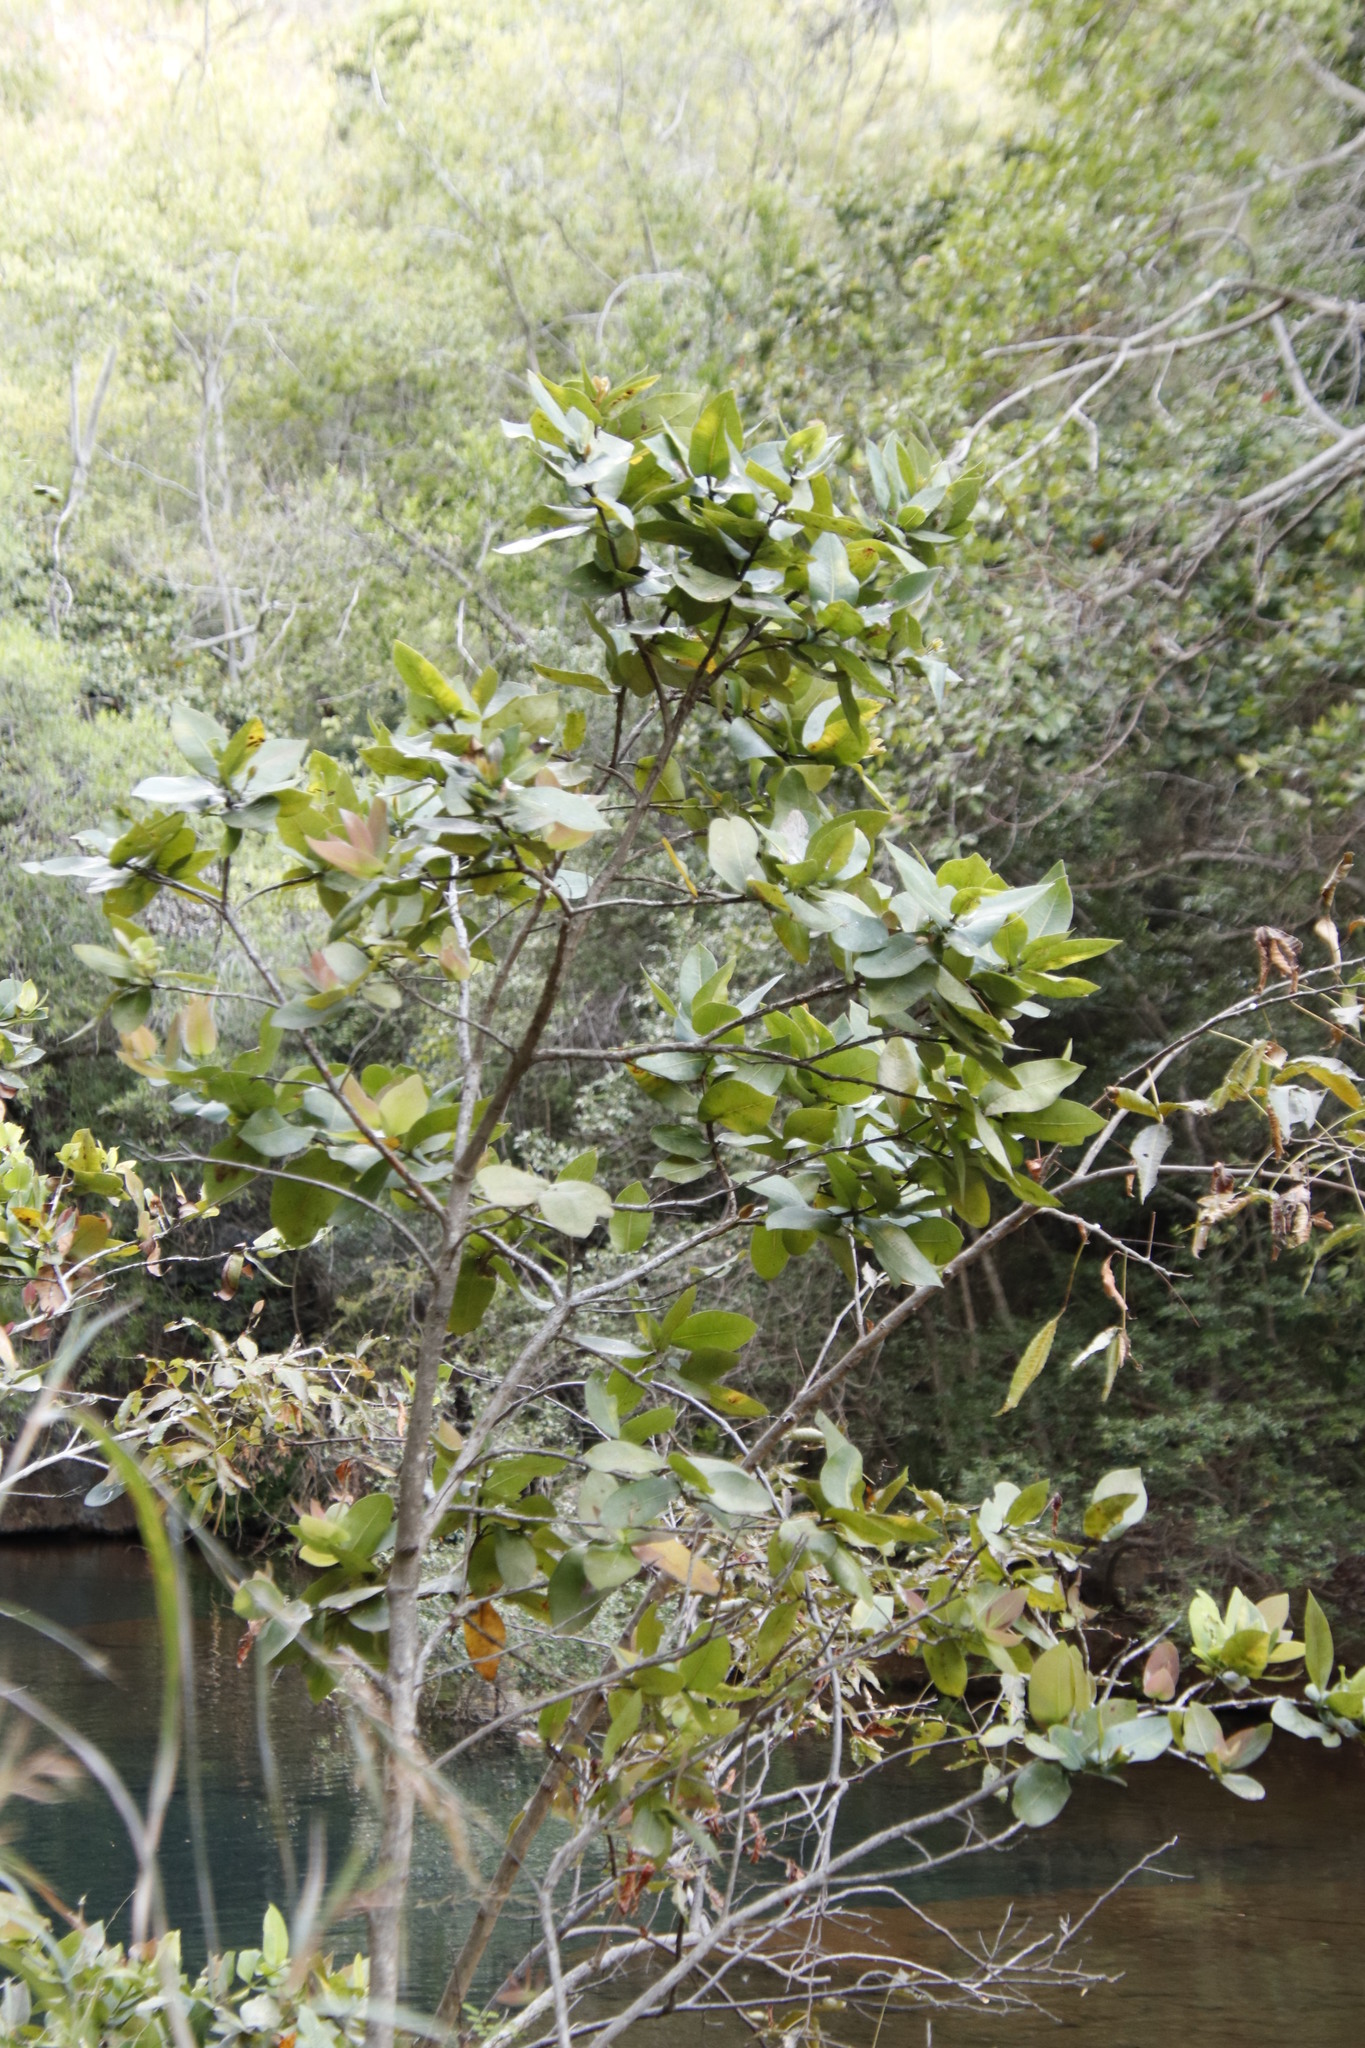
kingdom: Plantae
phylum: Tracheophyta
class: Magnoliopsida
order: Myrtales
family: Myrtaceae
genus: Syzygium
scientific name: Syzygium cordatum
